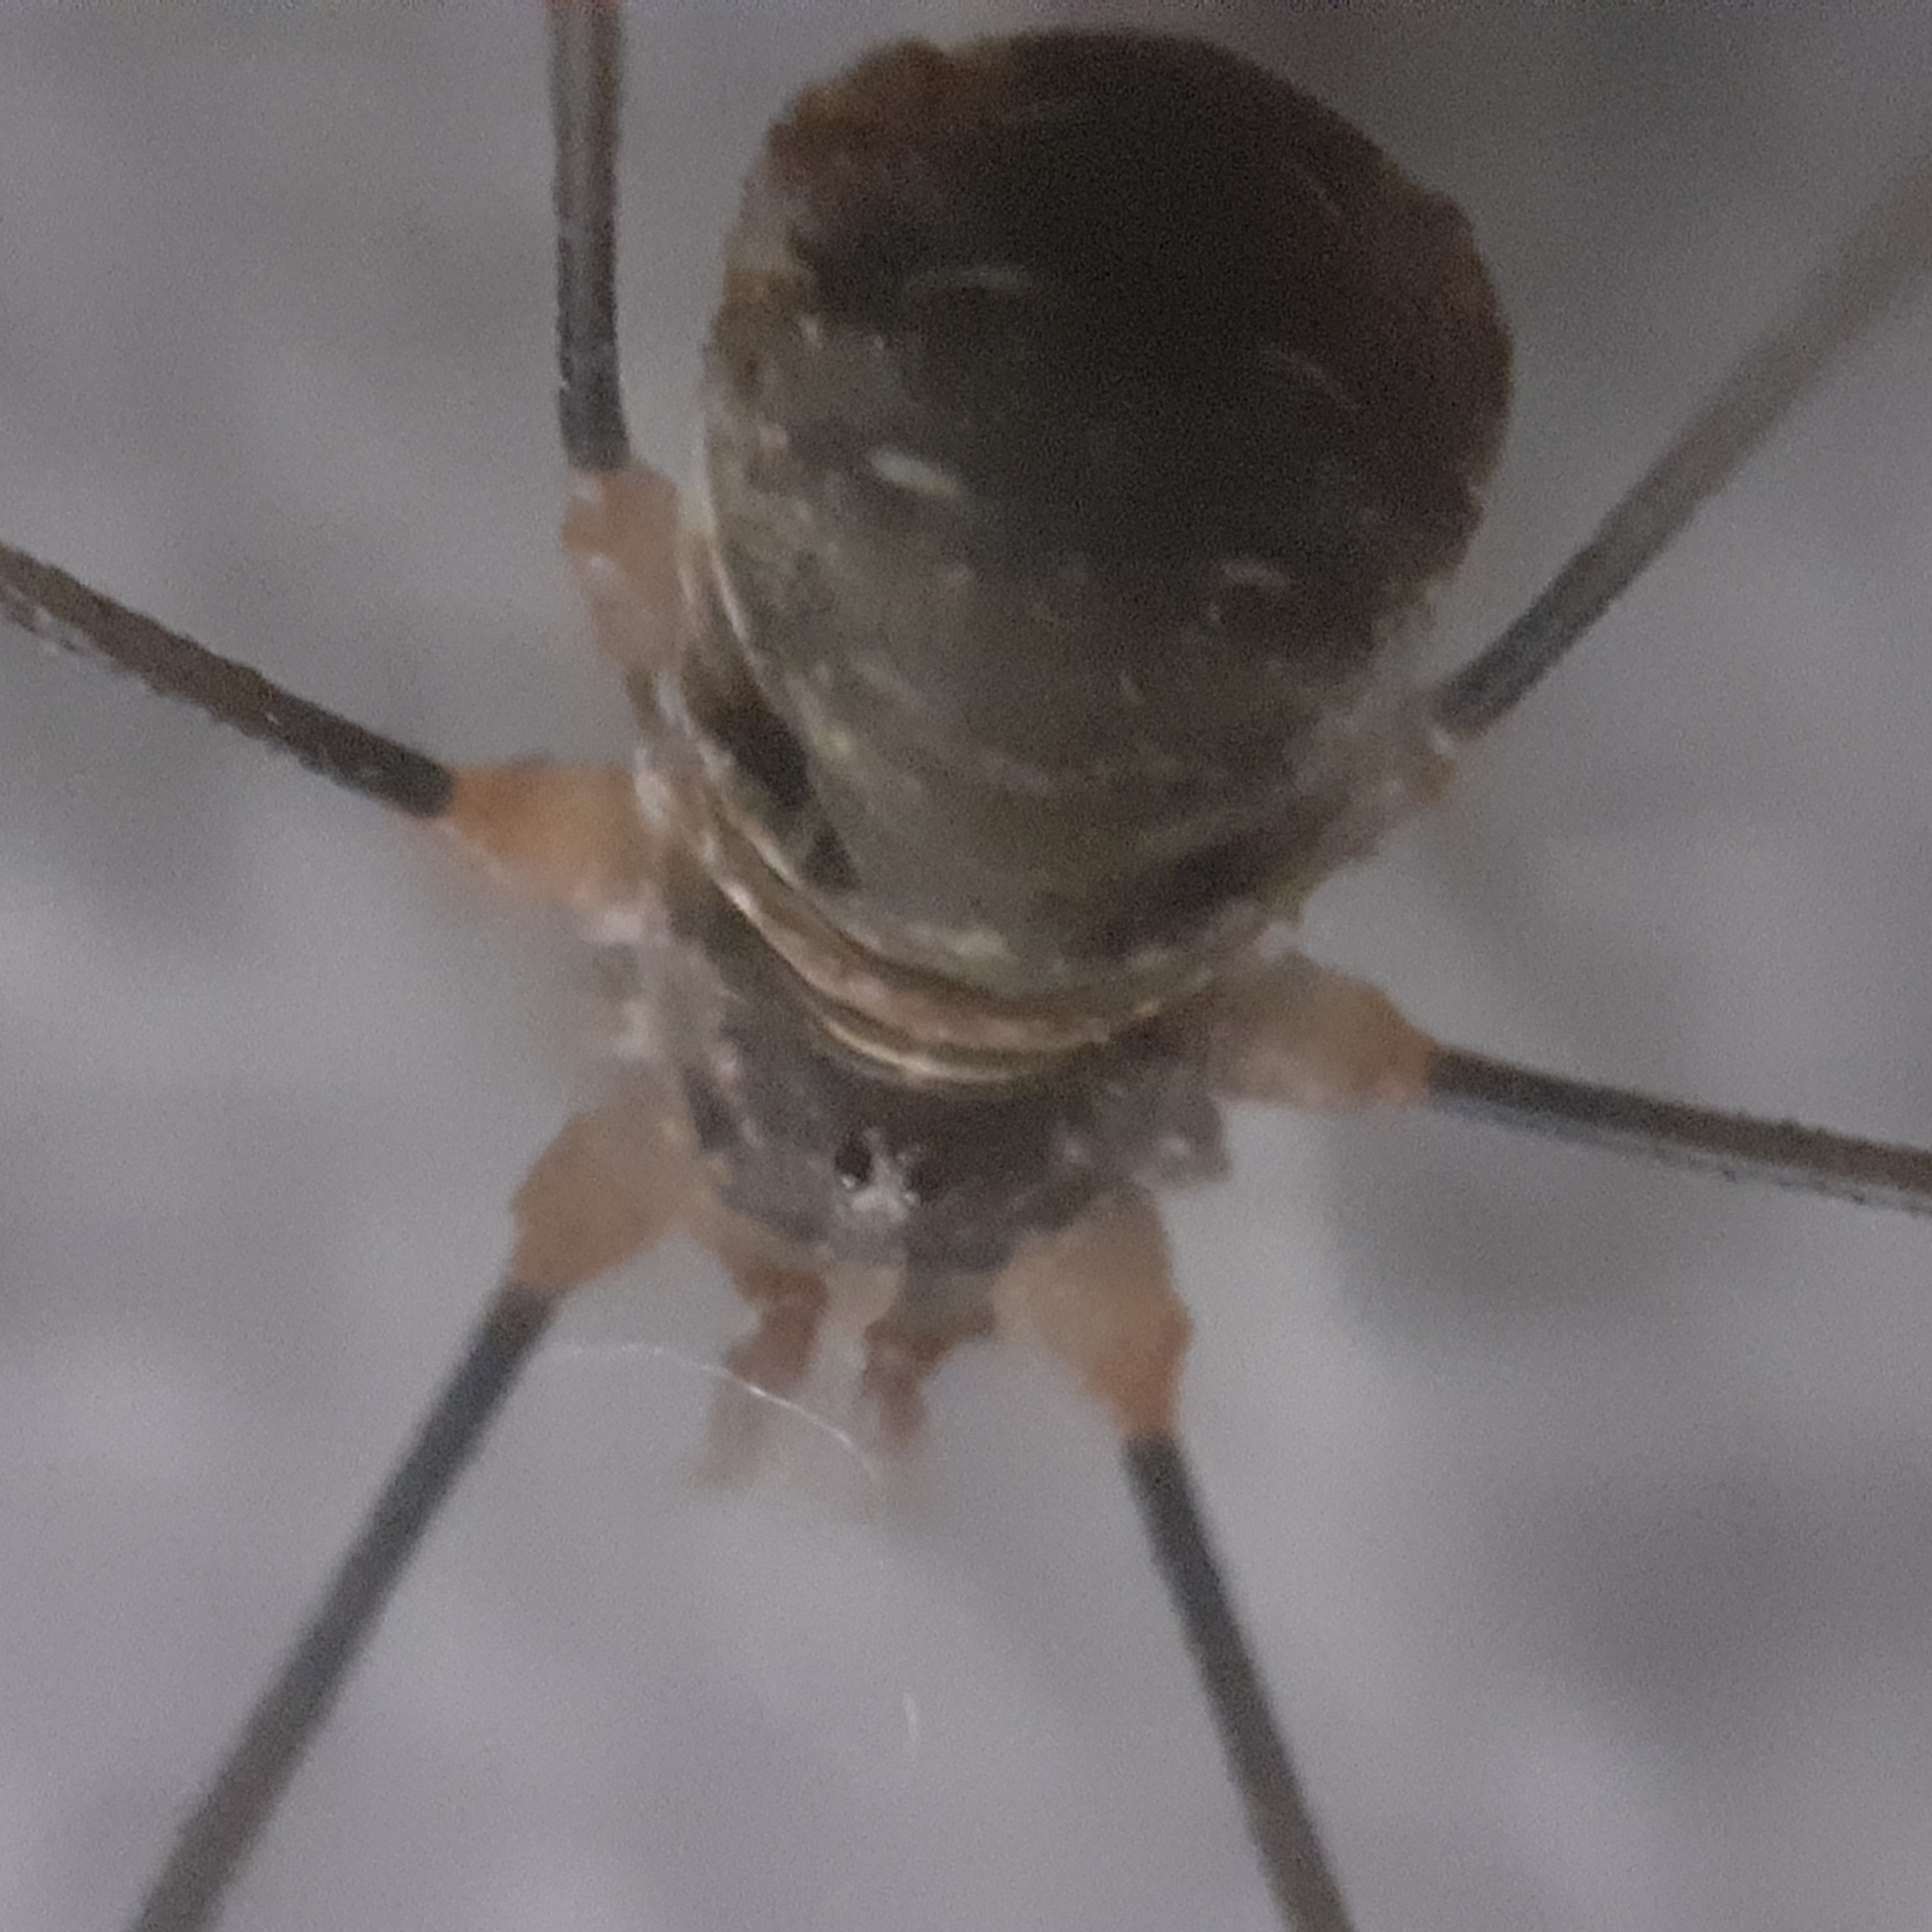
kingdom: Animalia
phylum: Arthropoda
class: Arachnida
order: Opiliones
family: Phalangiidae
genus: Opilio
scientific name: Opilio canestrinii
